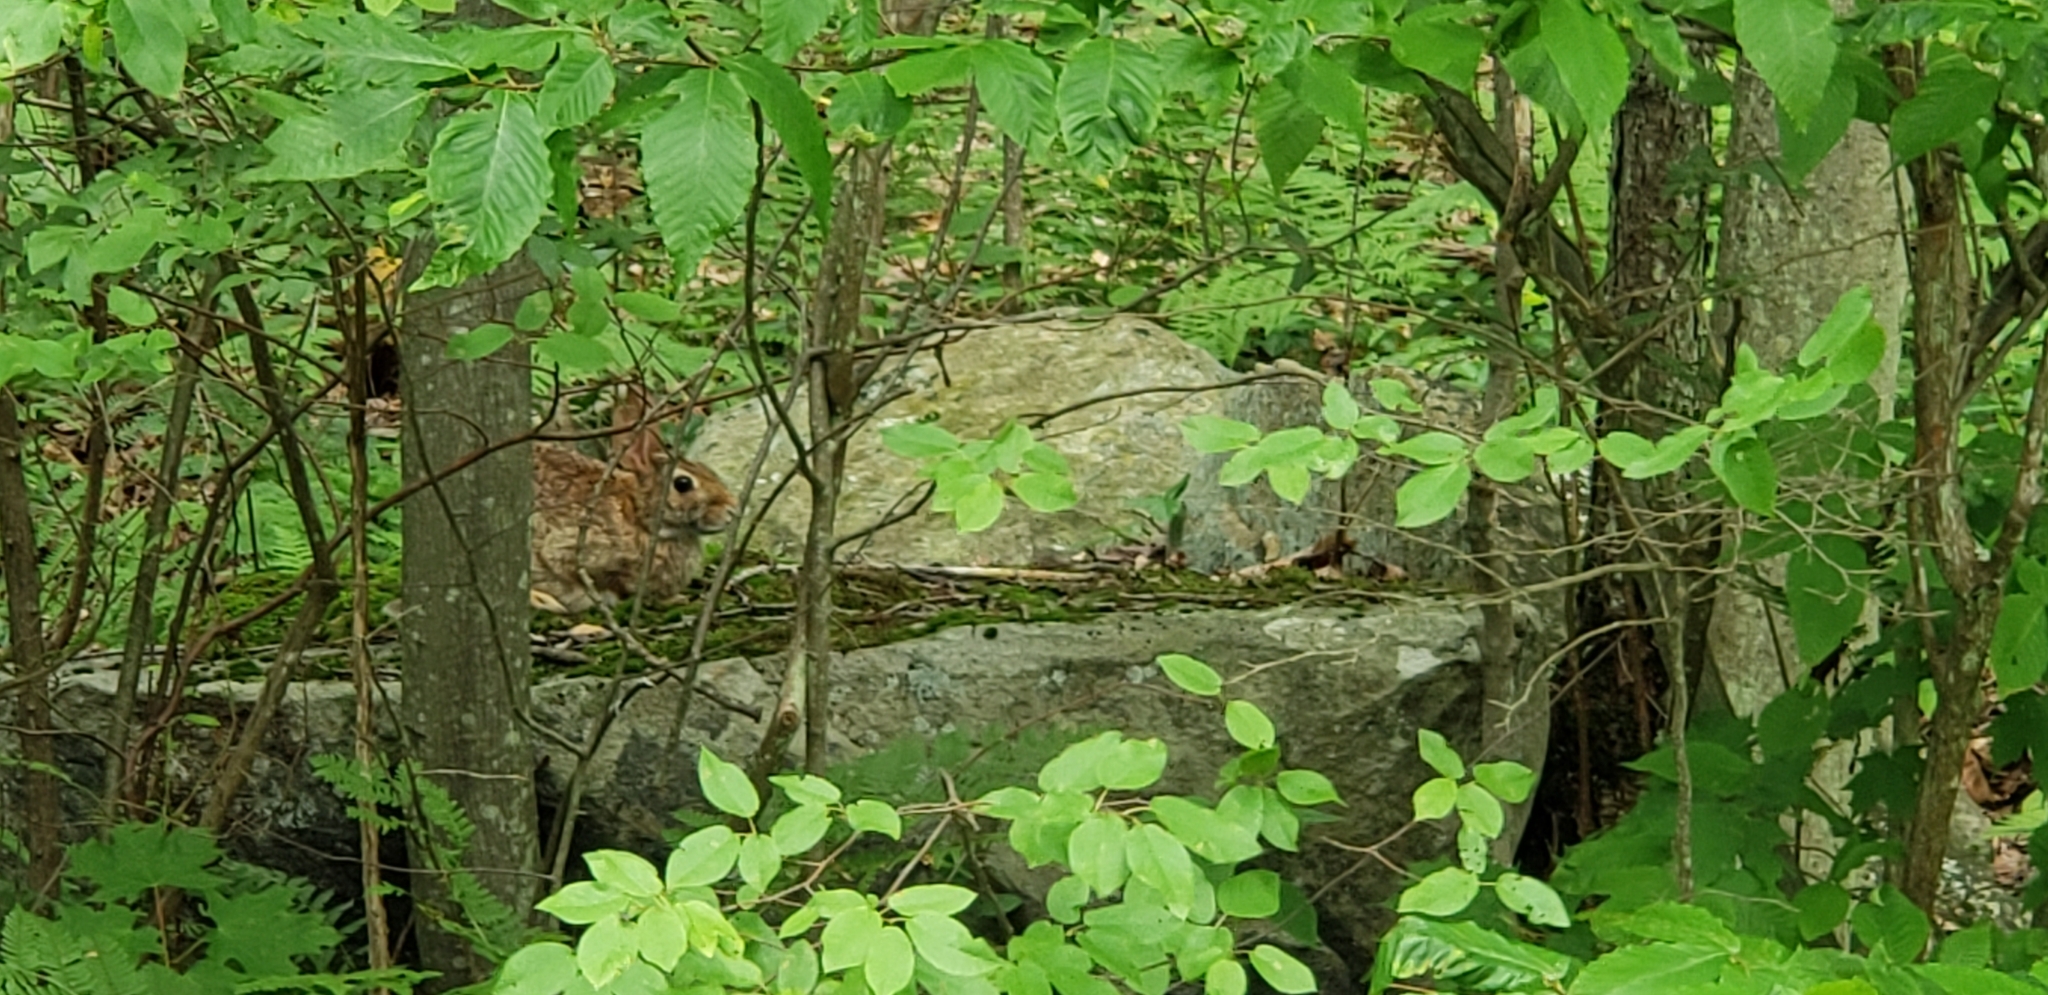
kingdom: Animalia
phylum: Chordata
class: Mammalia
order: Lagomorpha
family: Leporidae
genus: Sylvilagus
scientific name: Sylvilagus floridanus
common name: Eastern cottontail
